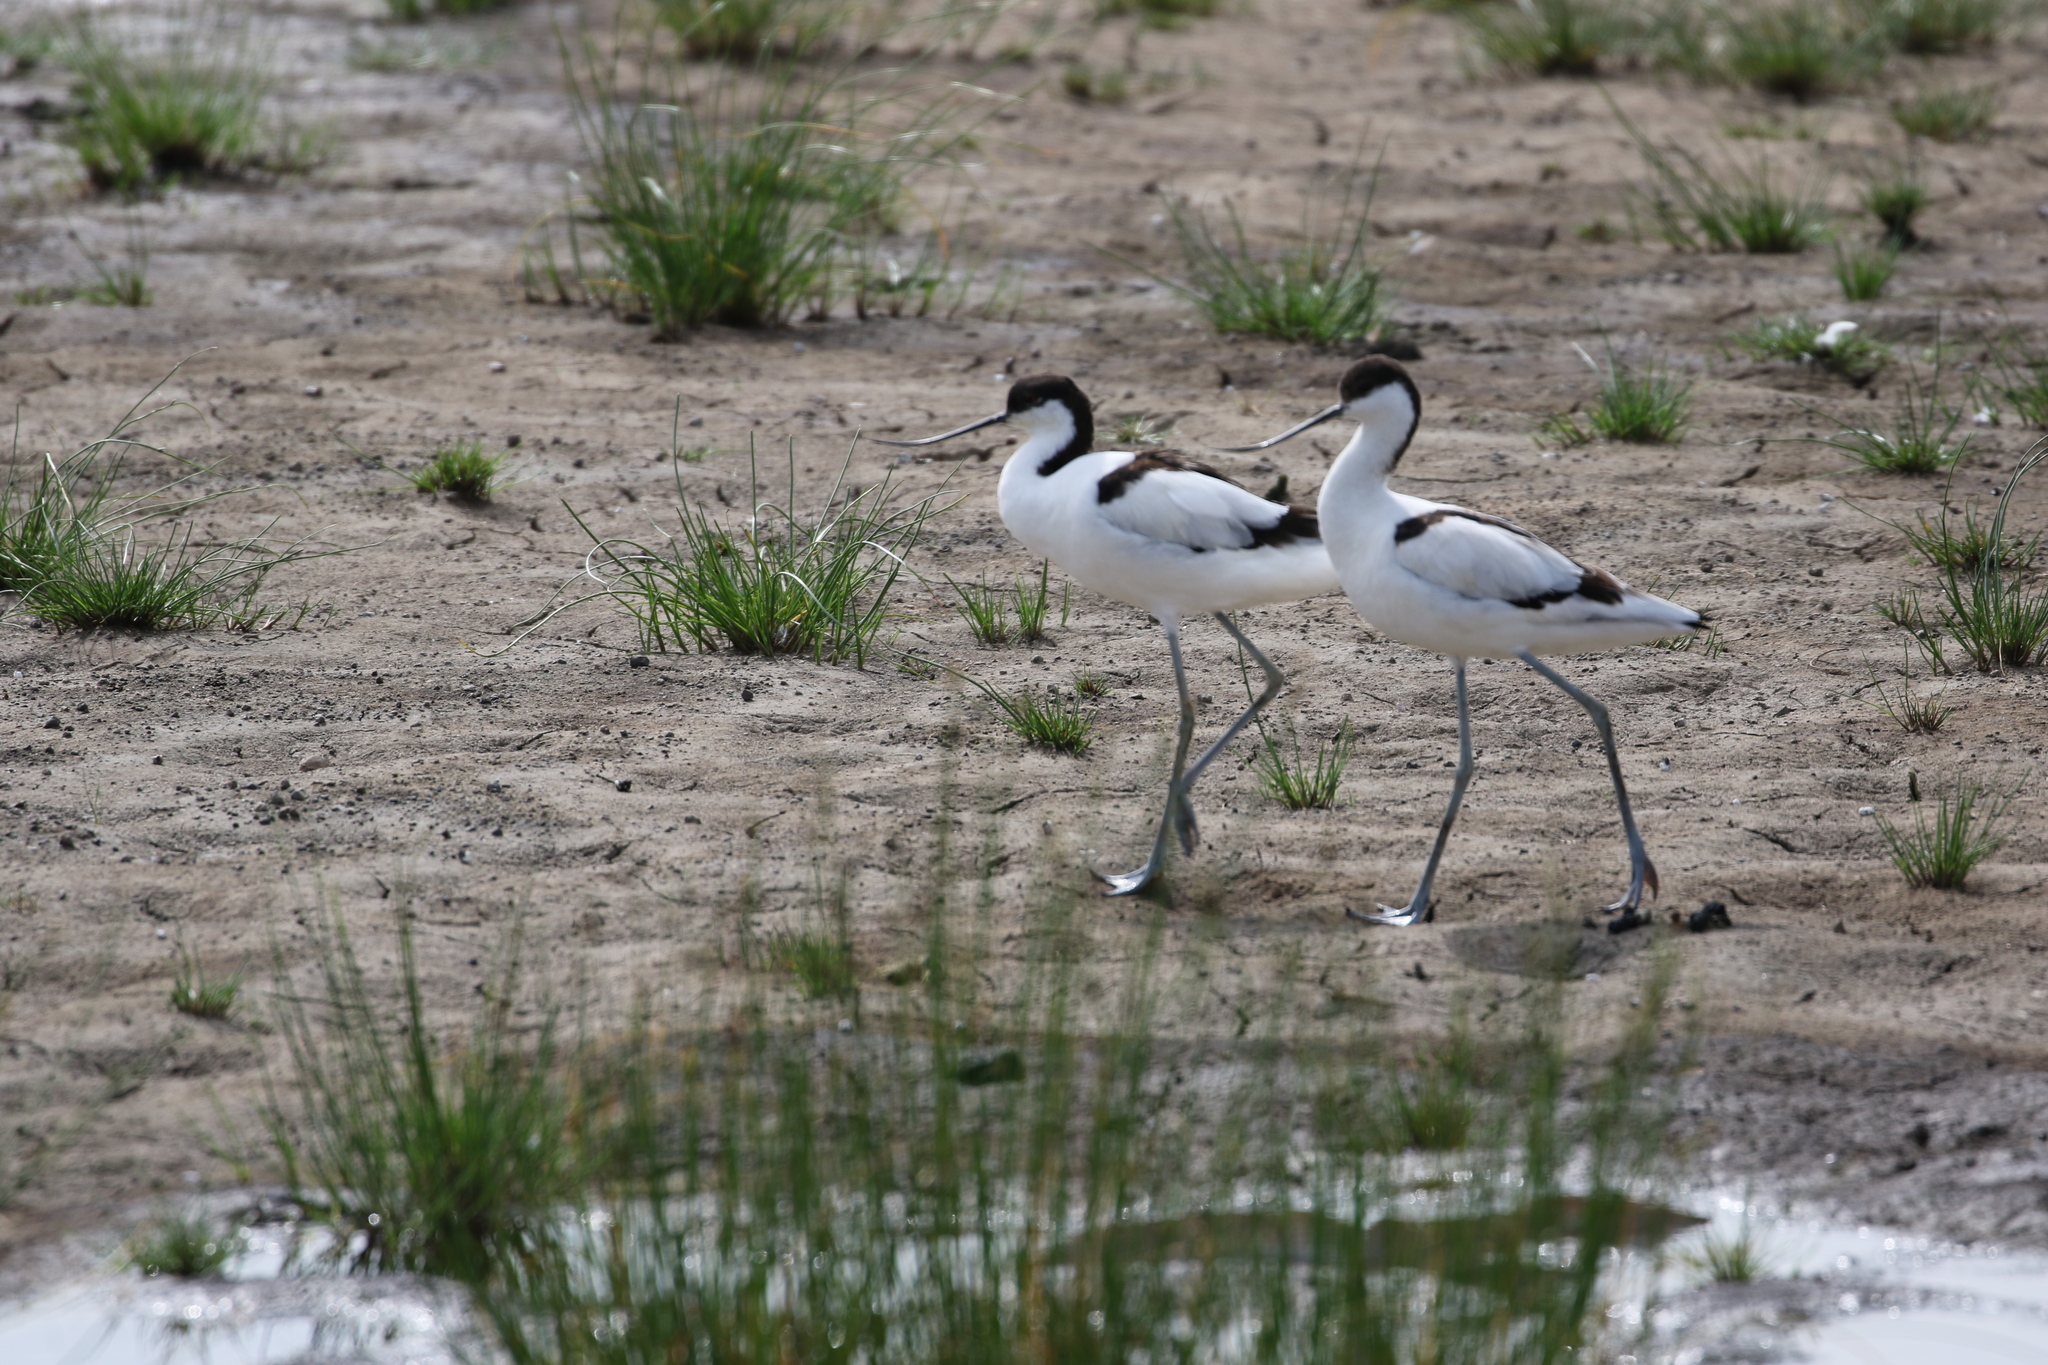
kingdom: Animalia
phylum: Chordata
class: Aves
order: Charadriiformes
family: Recurvirostridae
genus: Recurvirostra
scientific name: Recurvirostra avosetta
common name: Pied avocet
